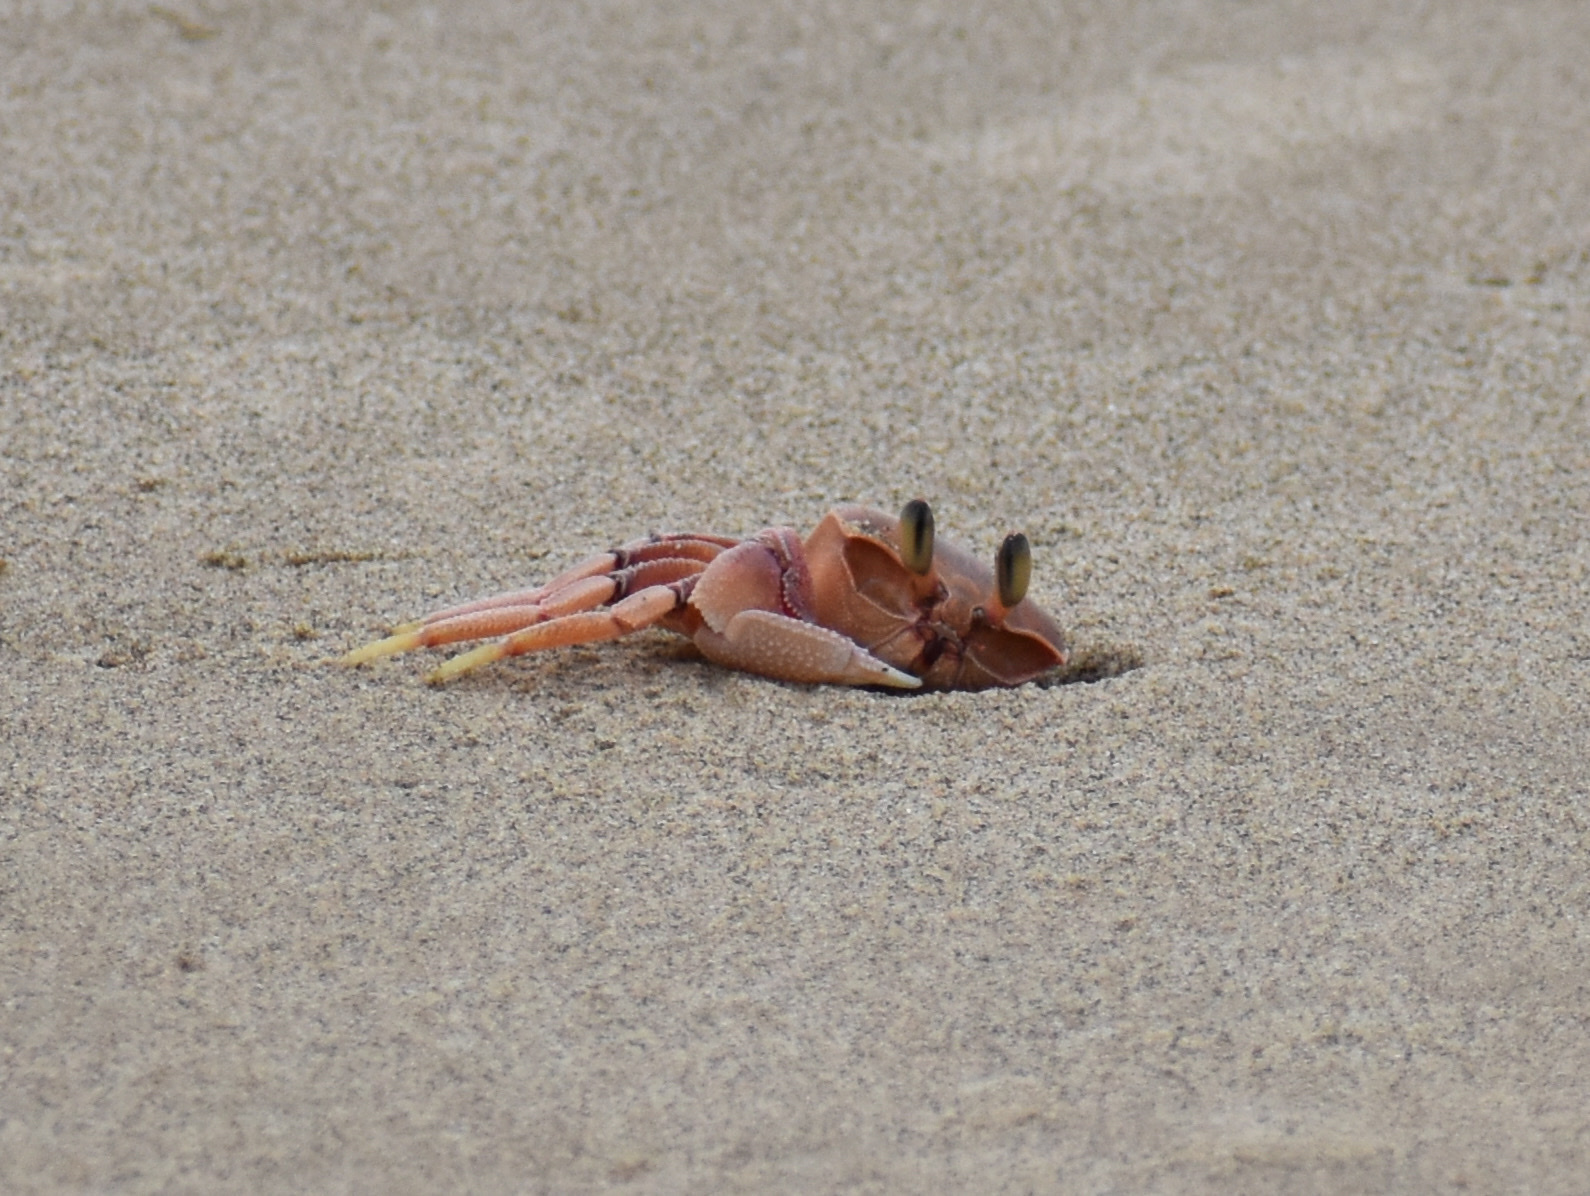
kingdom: Animalia
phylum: Arthropoda
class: Malacostraca
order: Decapoda
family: Ocypodidae
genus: Ocypode
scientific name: Ocypode ryderi
